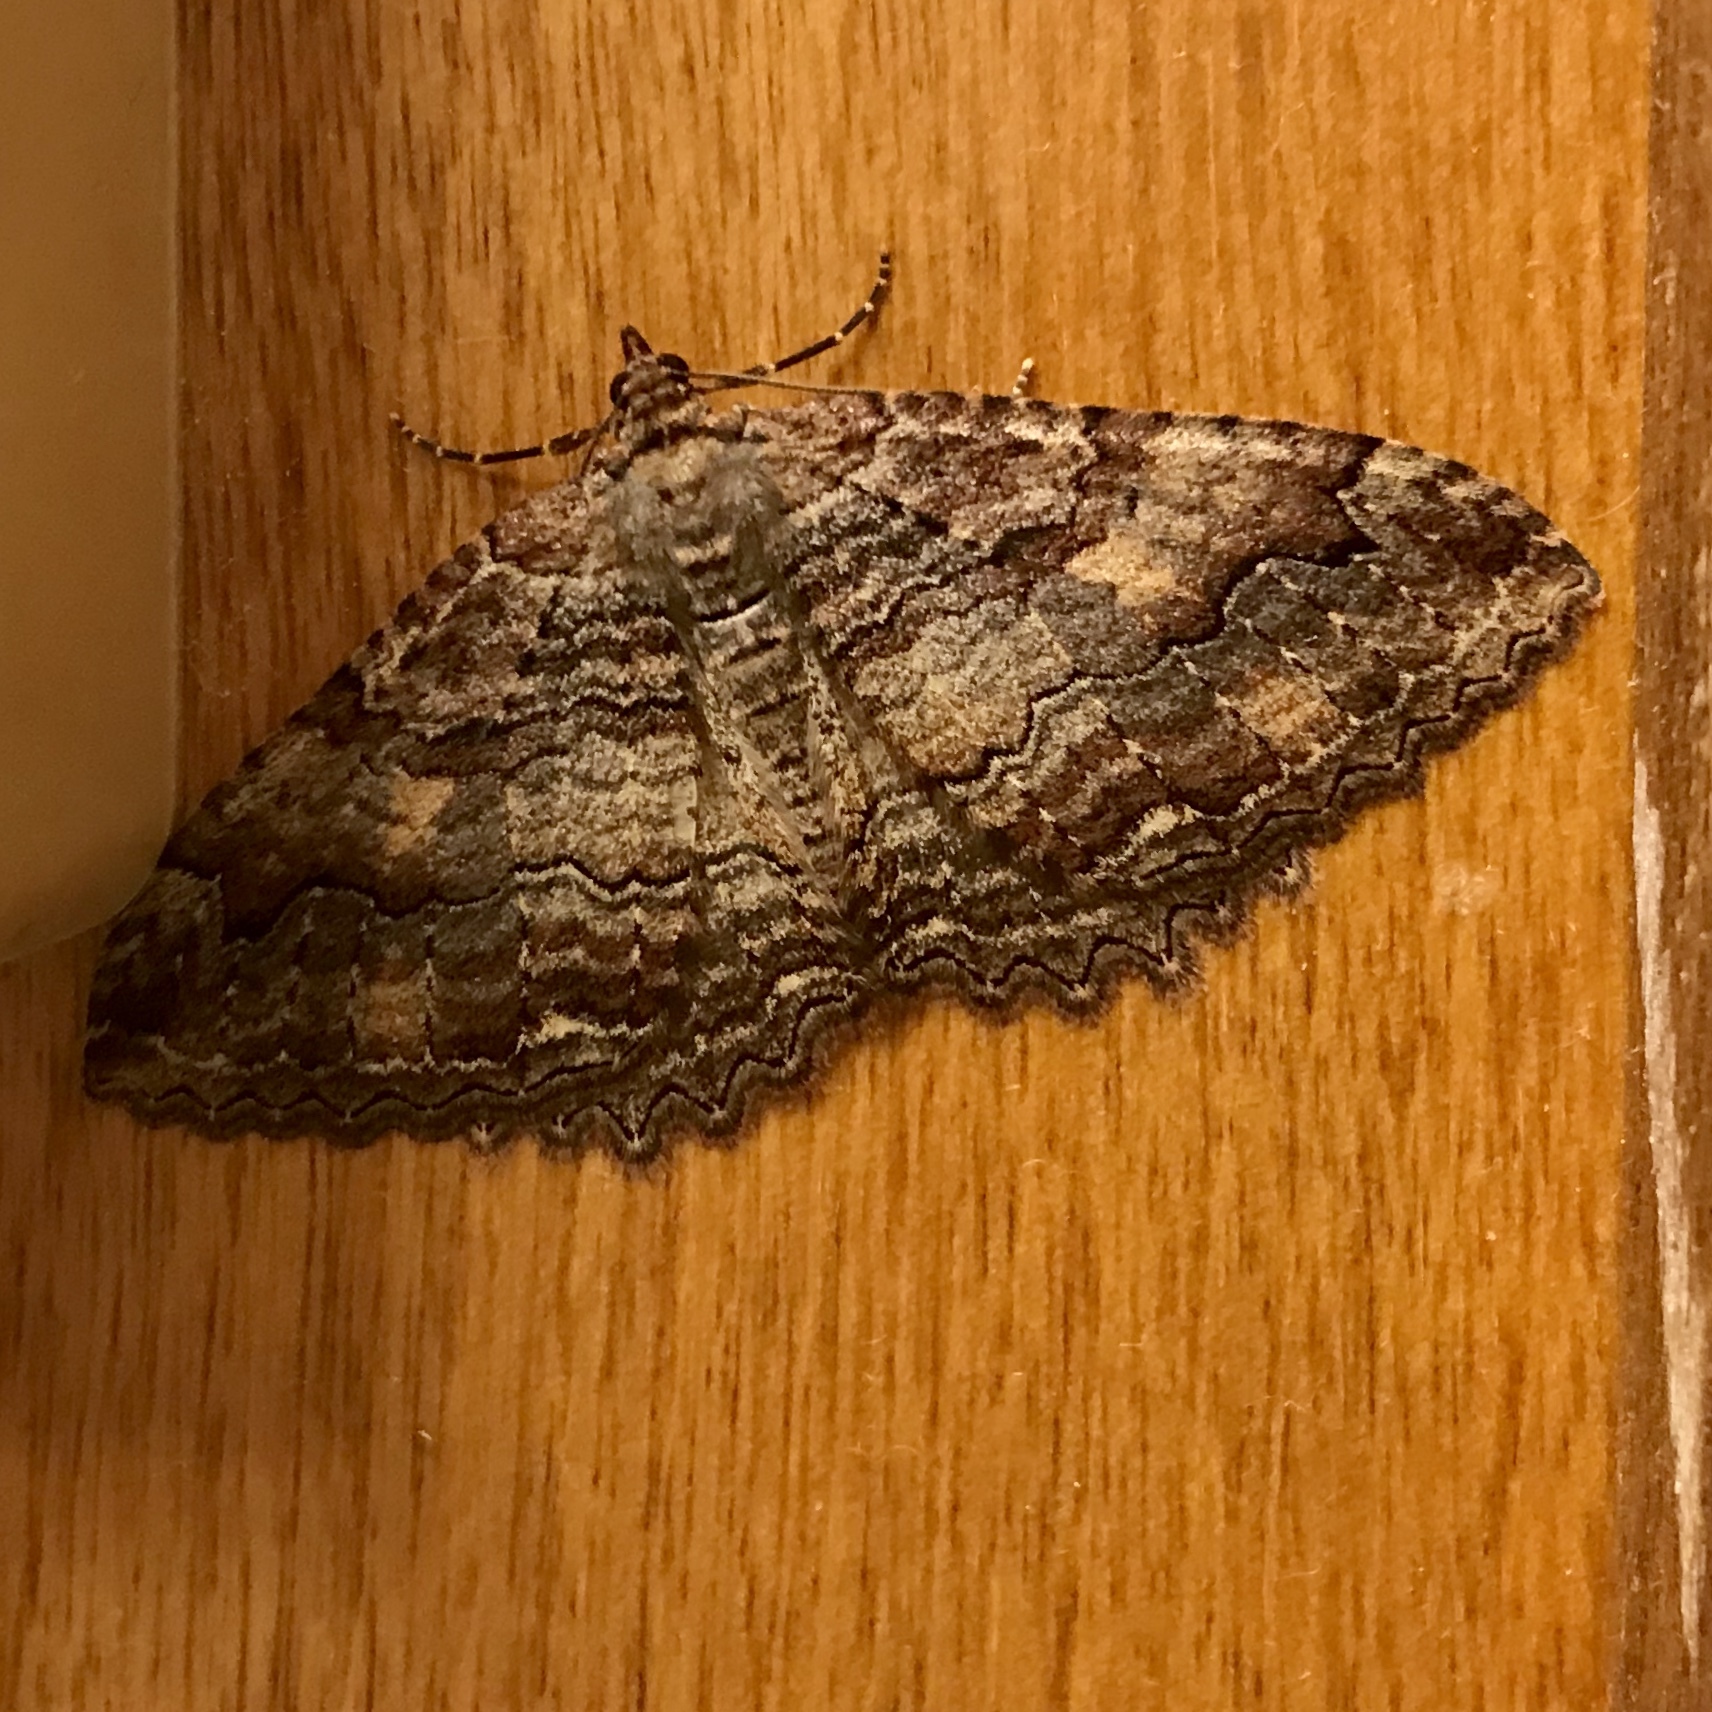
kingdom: Animalia
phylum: Arthropoda
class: Insecta
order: Lepidoptera
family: Geometridae
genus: Triphosa
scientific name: Triphosa haesitata
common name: Tissue moth
